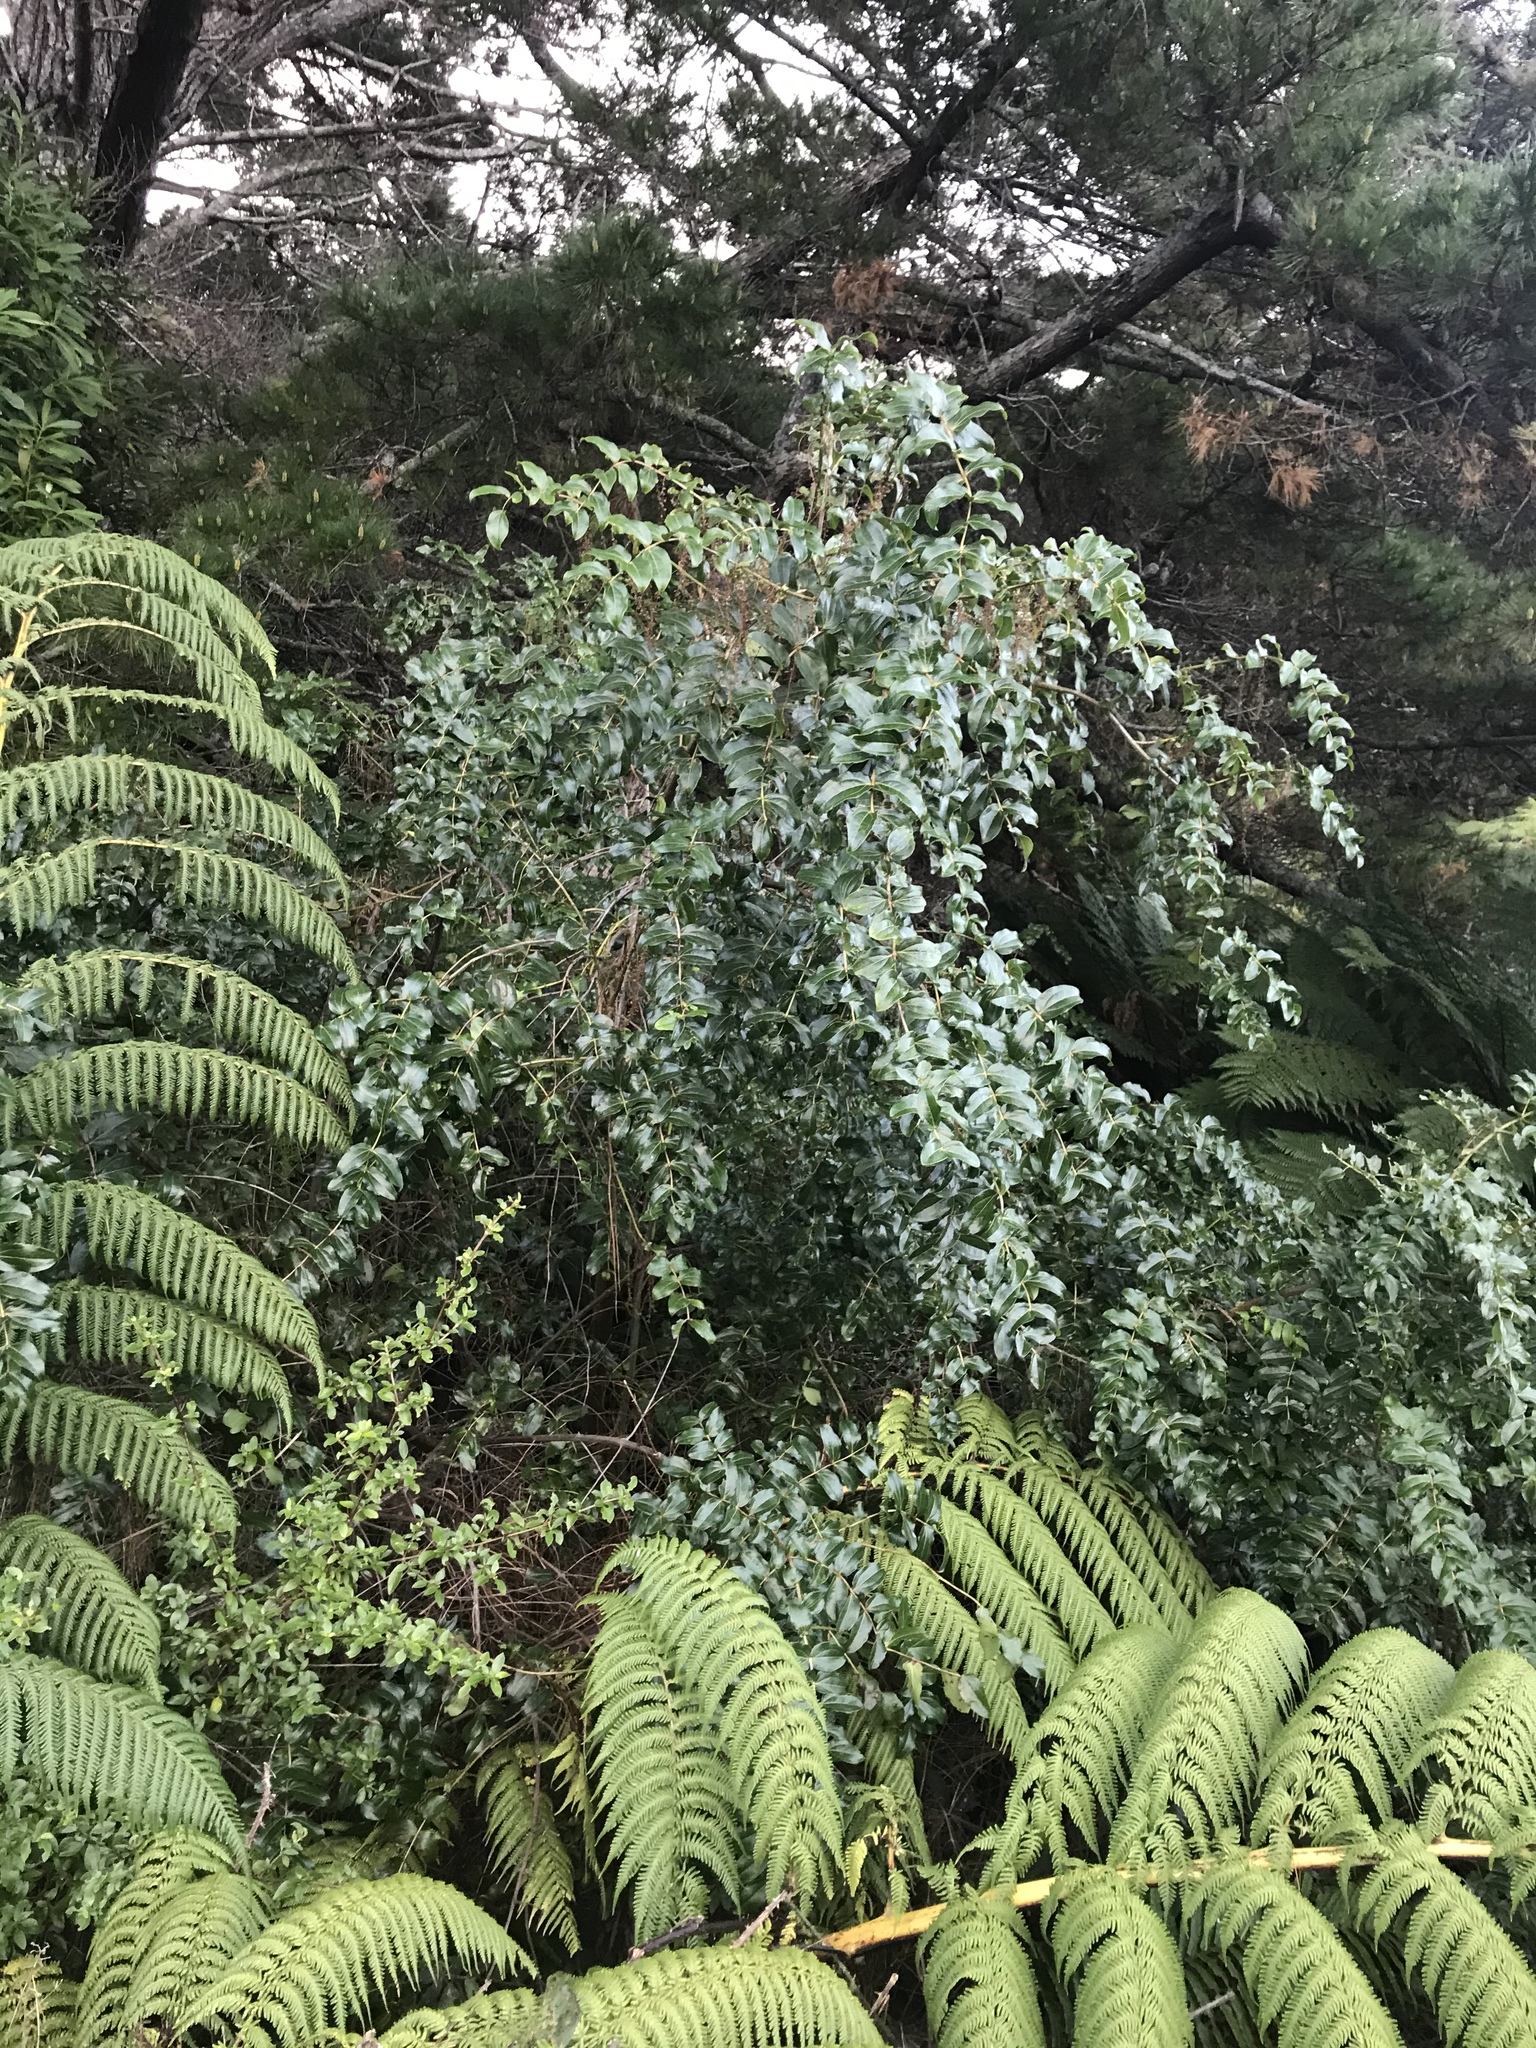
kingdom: Plantae
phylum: Tracheophyta
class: Magnoliopsida
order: Cucurbitales
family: Coriariaceae
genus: Coriaria
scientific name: Coriaria arborea
